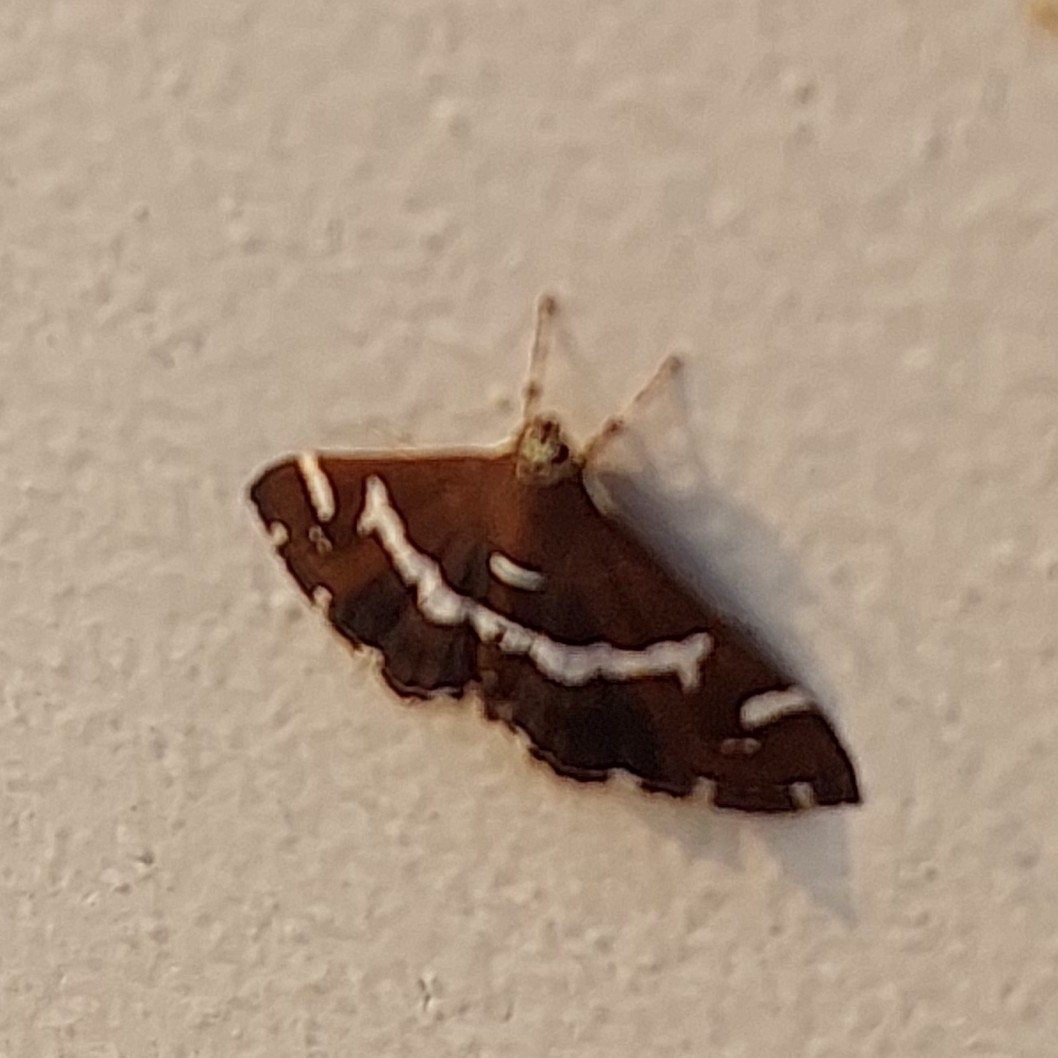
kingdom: Animalia
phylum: Arthropoda
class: Insecta
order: Lepidoptera
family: Crambidae
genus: Spoladea
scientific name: Spoladea recurvalis
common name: Beet webworm moth
